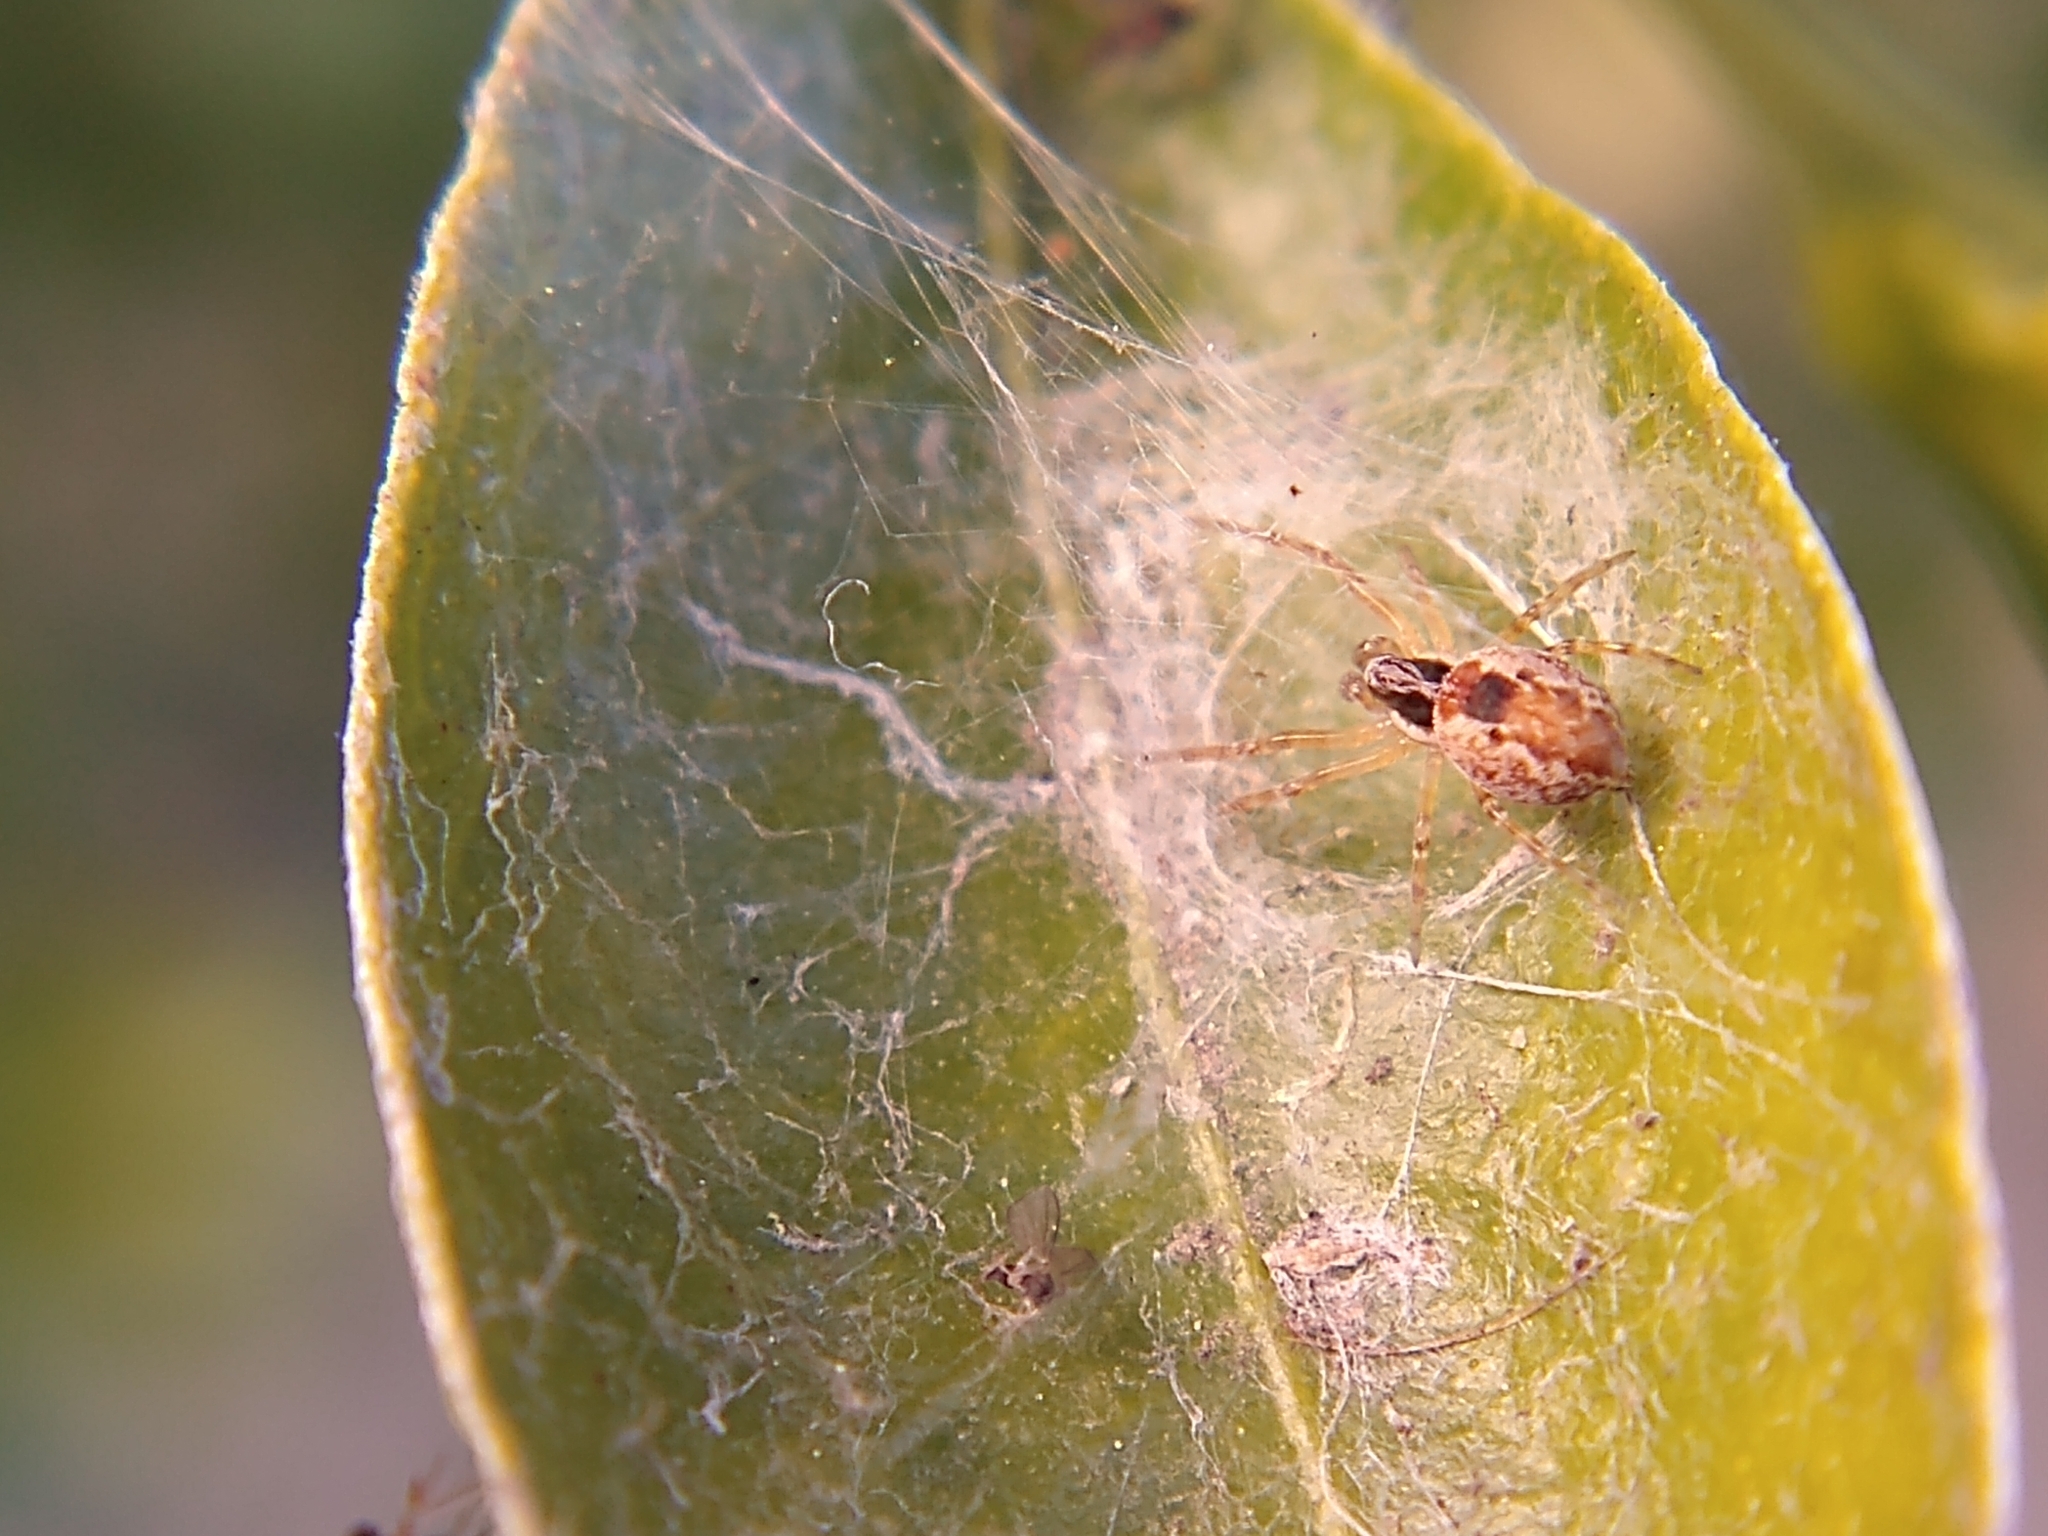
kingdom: Animalia
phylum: Arthropoda
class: Arachnida
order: Araneae
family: Dictynidae
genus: Mallos
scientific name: Mallos
